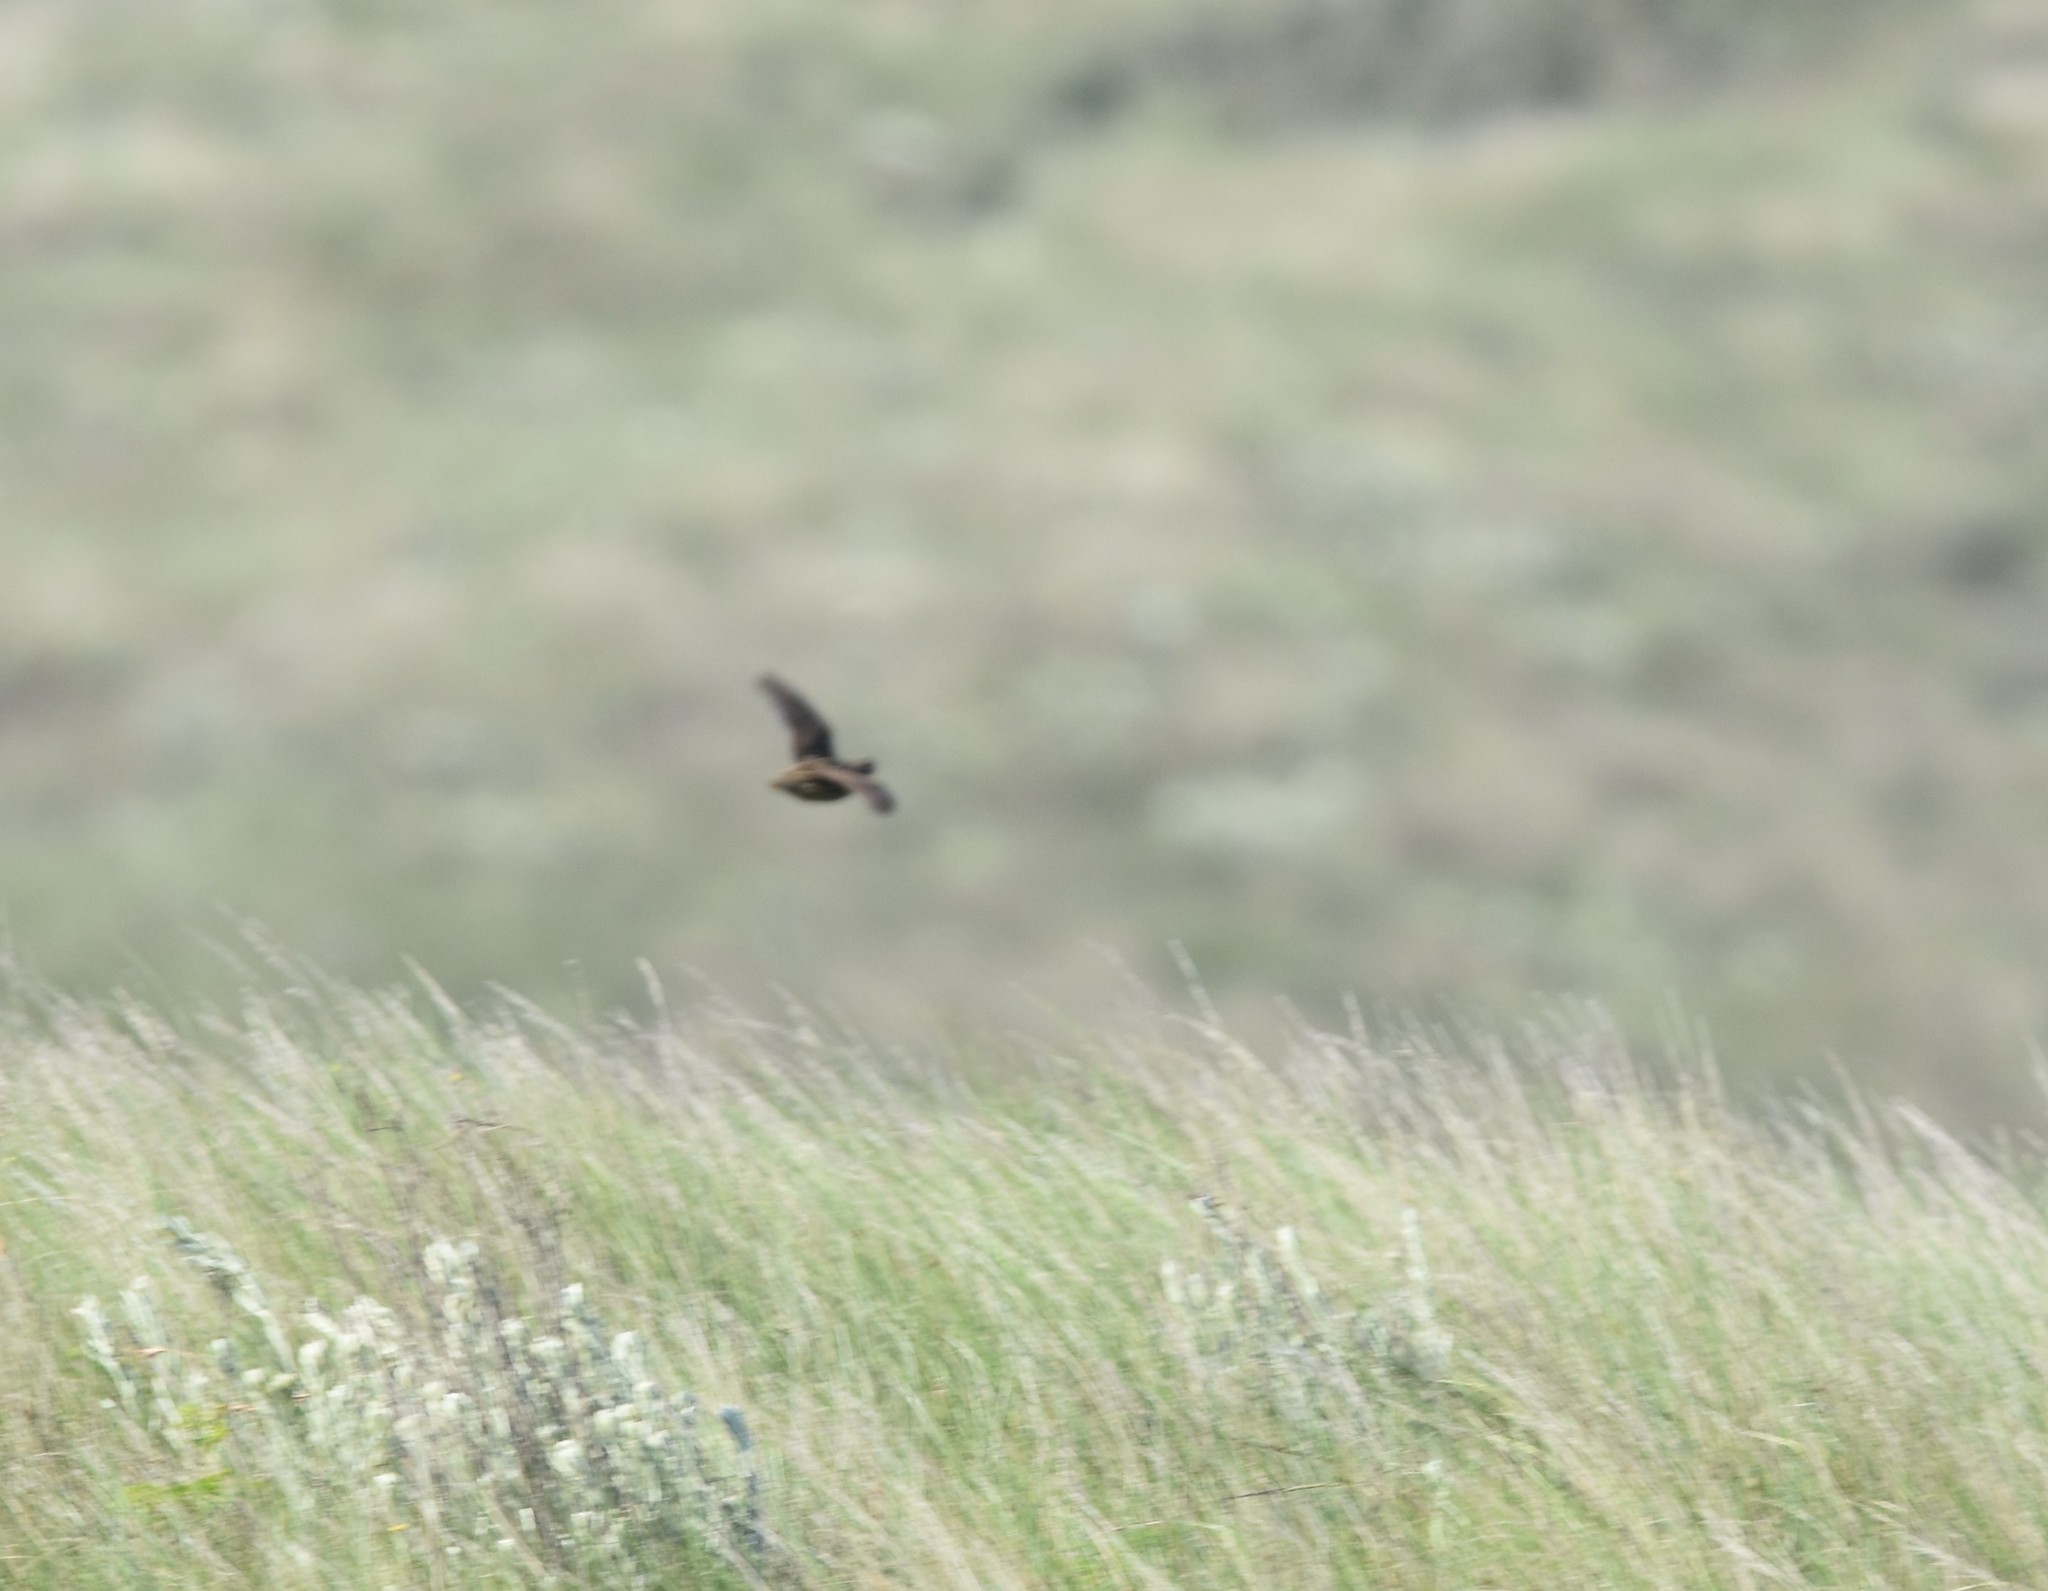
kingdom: Animalia
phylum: Chordata
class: Aves
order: Galliformes
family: Phasianidae
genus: Coturnix
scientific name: Coturnix coturnix
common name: Common quail
